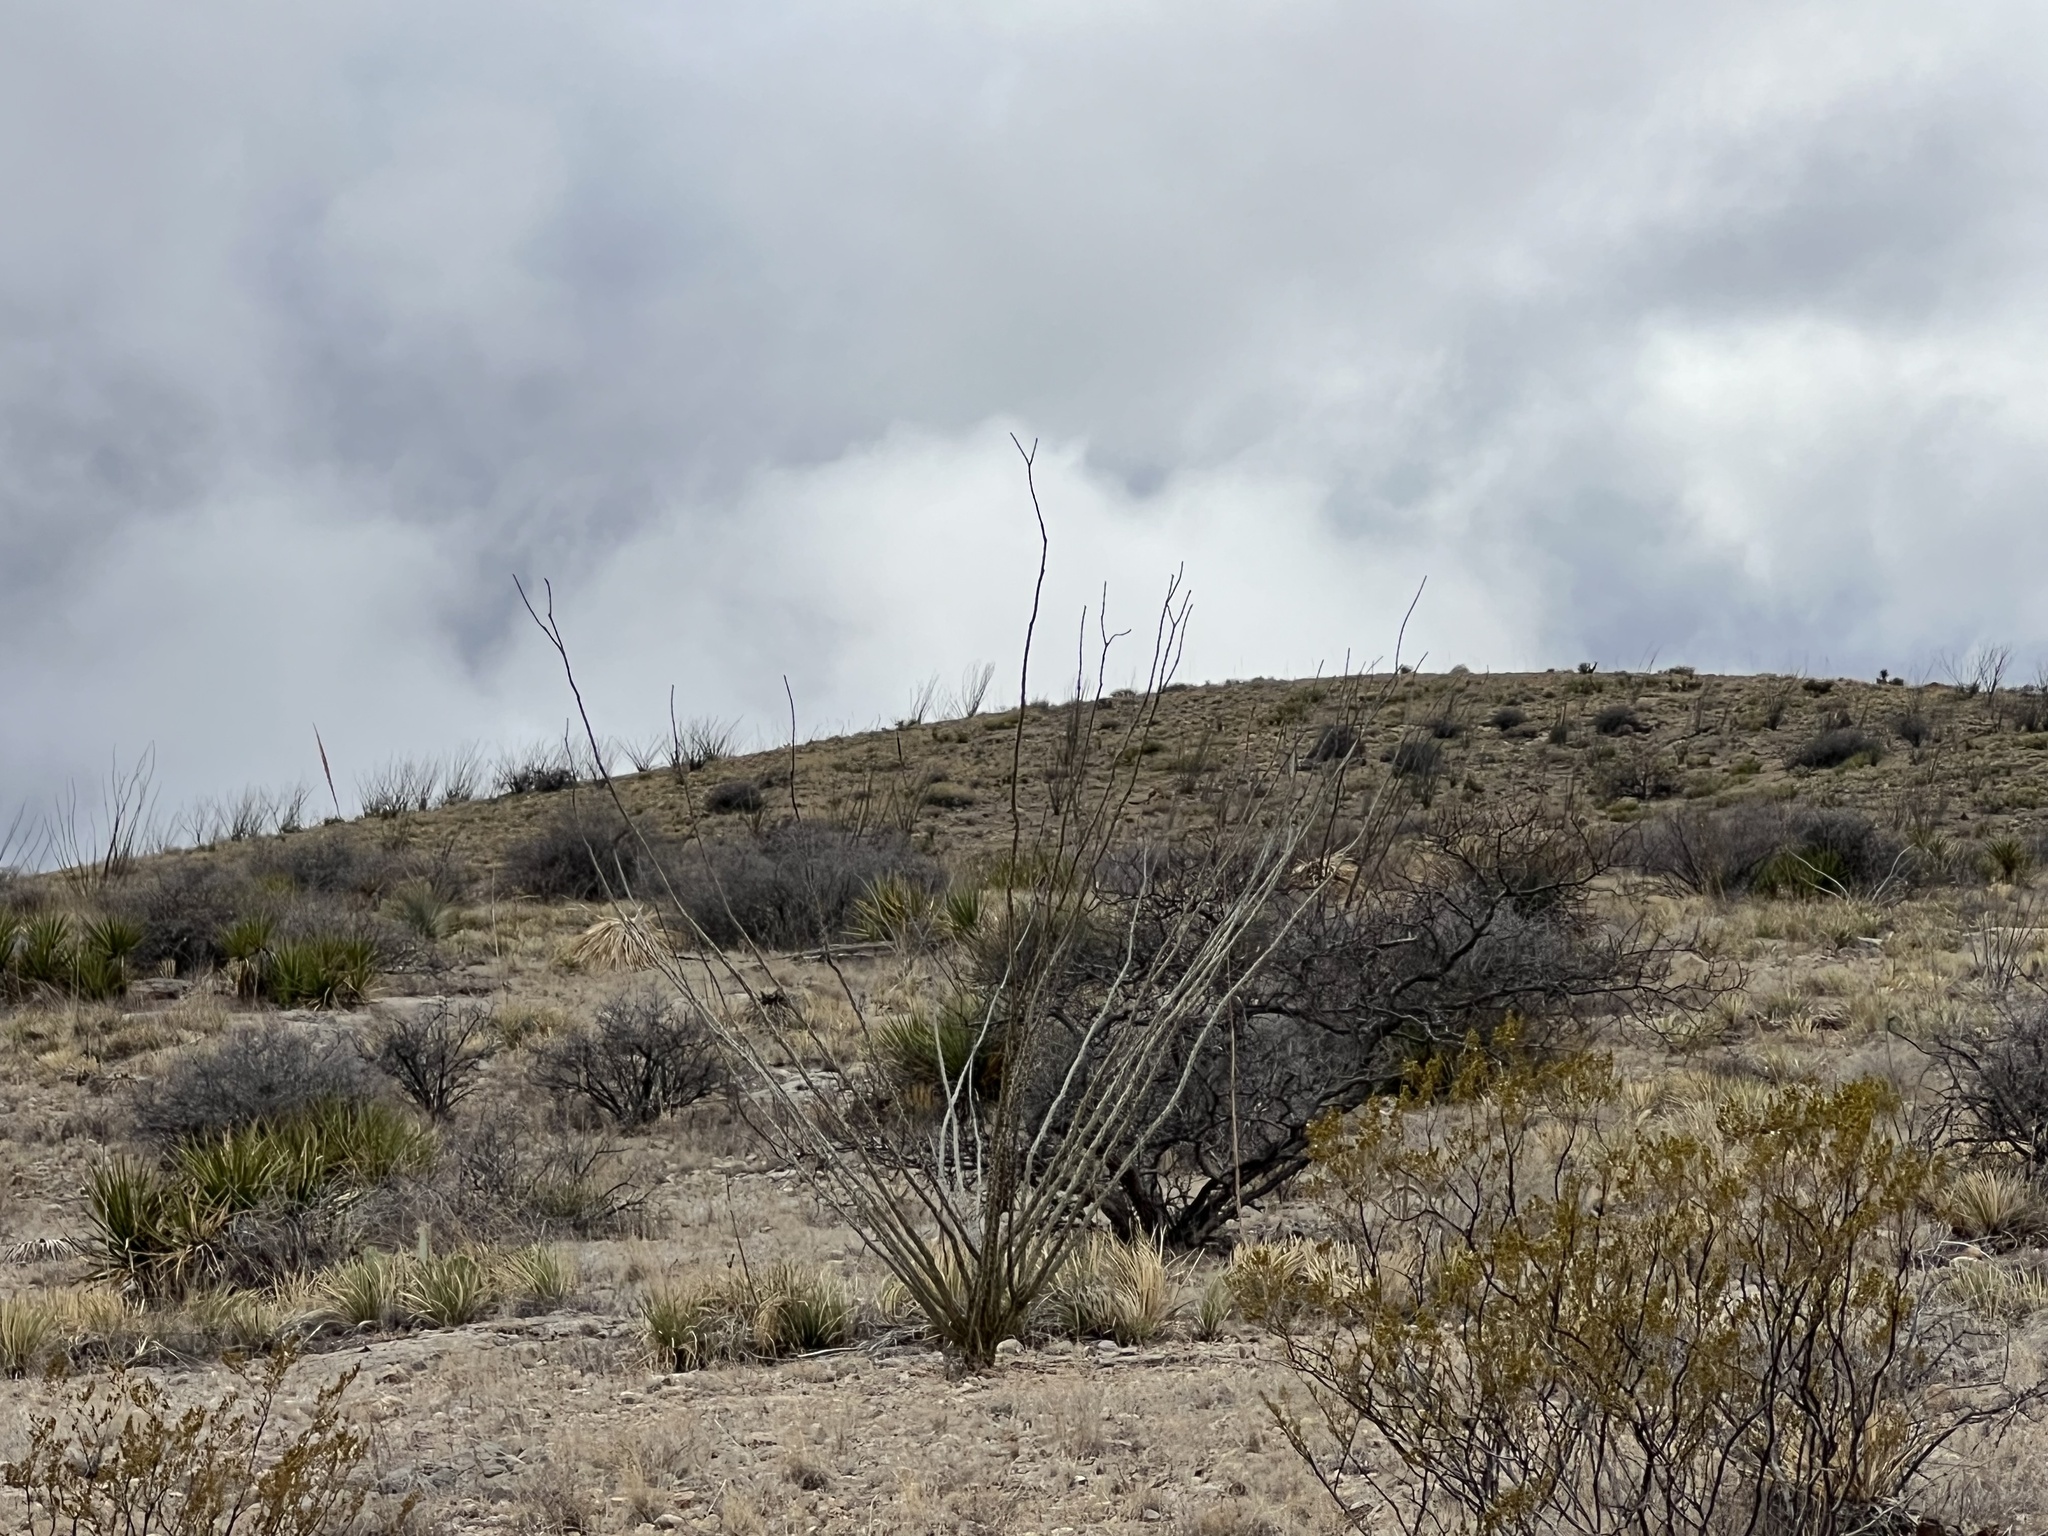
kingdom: Plantae
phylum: Tracheophyta
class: Magnoliopsida
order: Ericales
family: Fouquieriaceae
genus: Fouquieria
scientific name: Fouquieria splendens
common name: Vine-cactus
